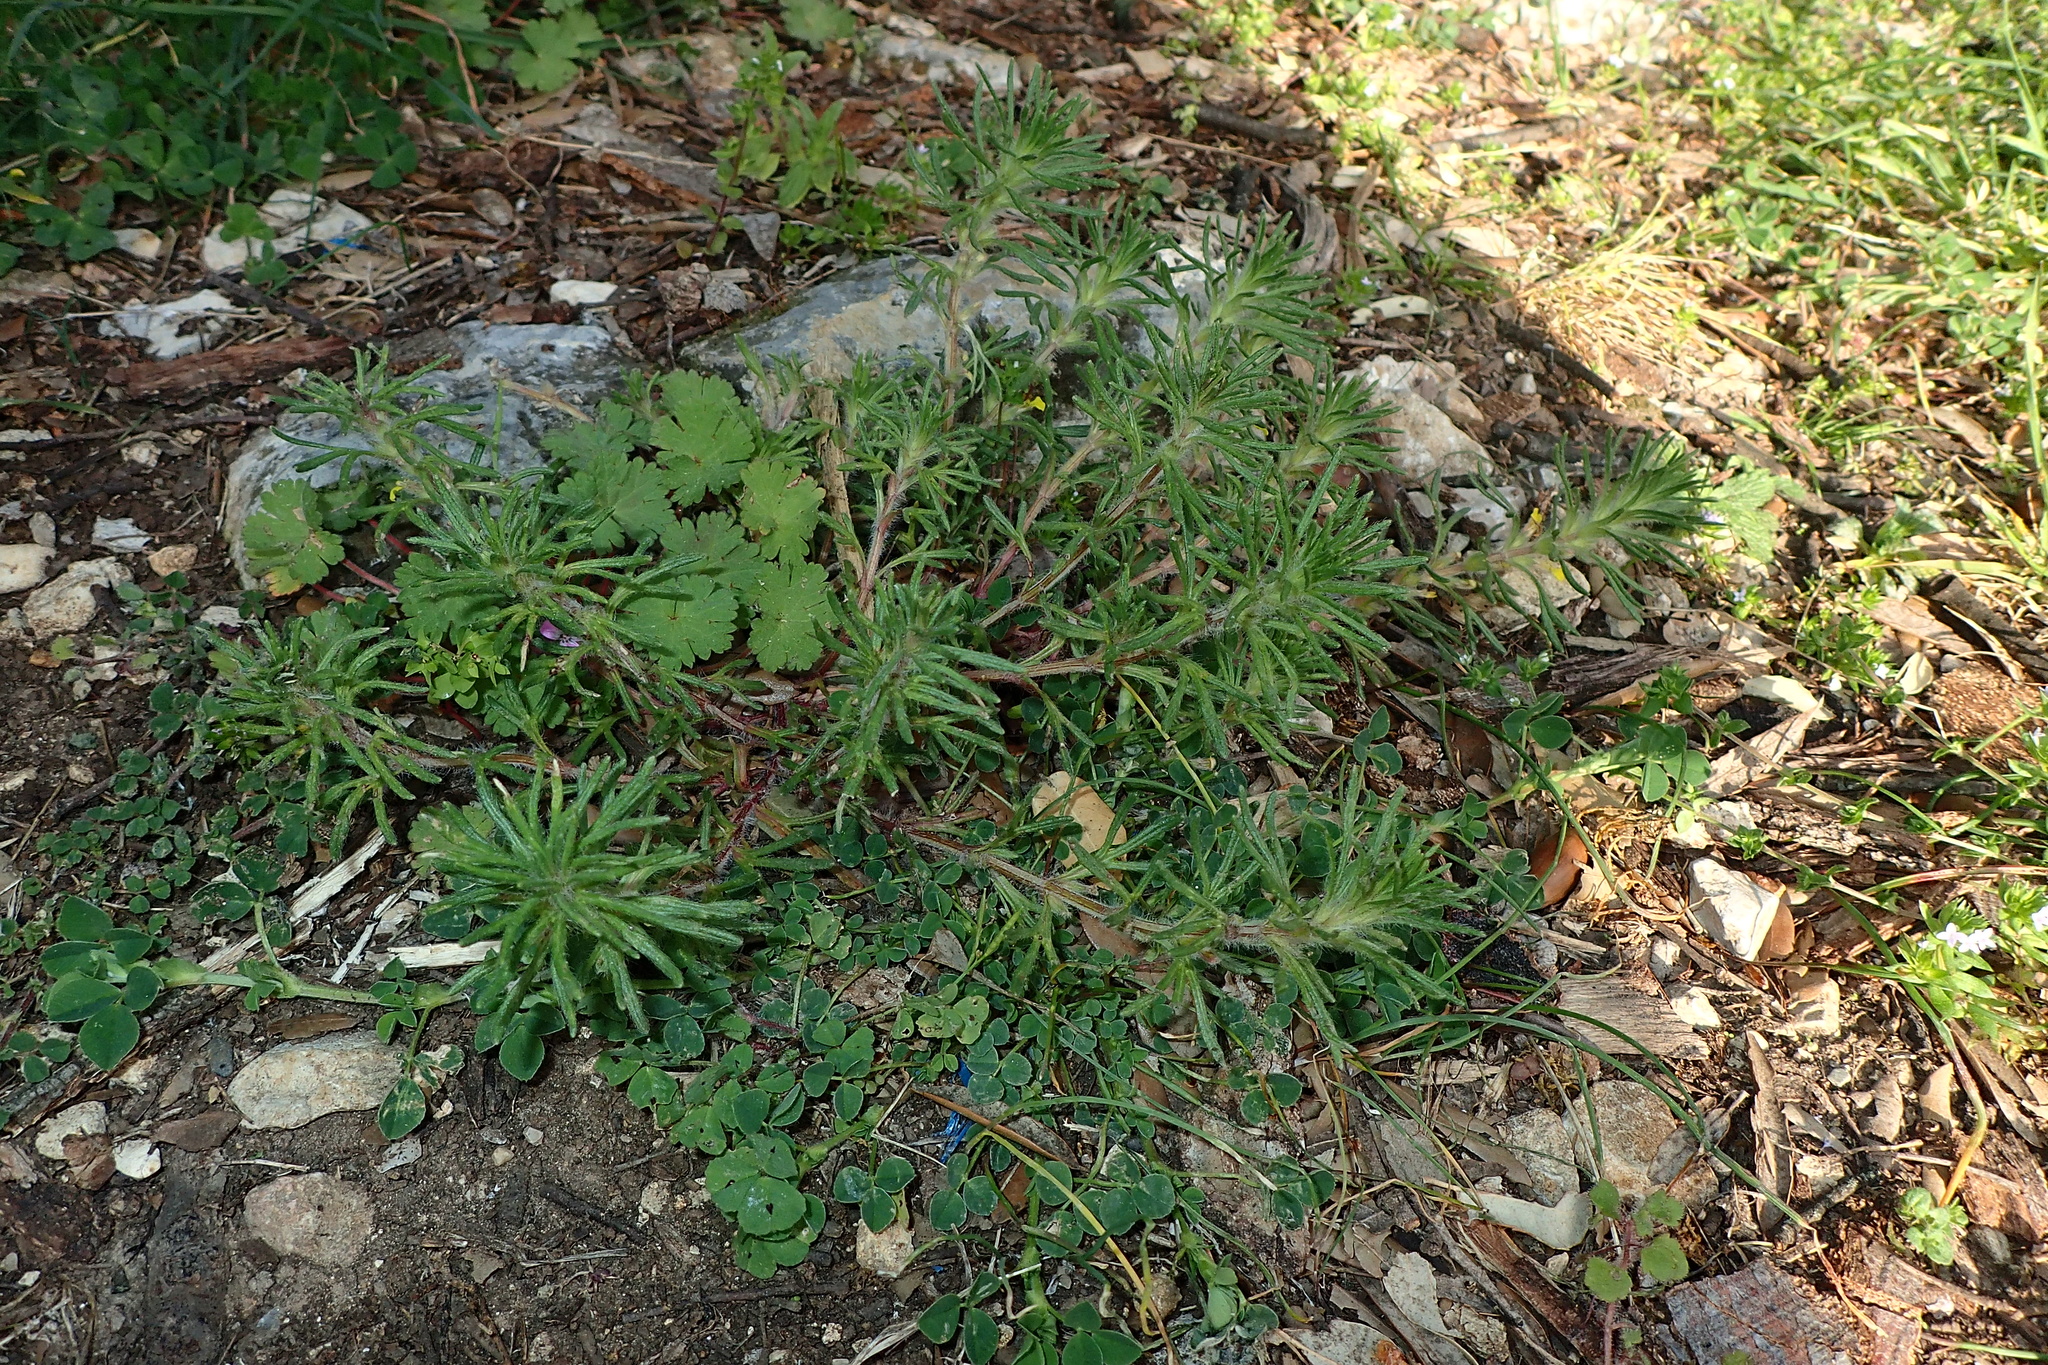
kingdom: Plantae
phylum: Tracheophyta
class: Magnoliopsida
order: Lamiales
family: Lamiaceae
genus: Ajuga
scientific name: Ajuga chamaepitys
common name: Ground-pine
